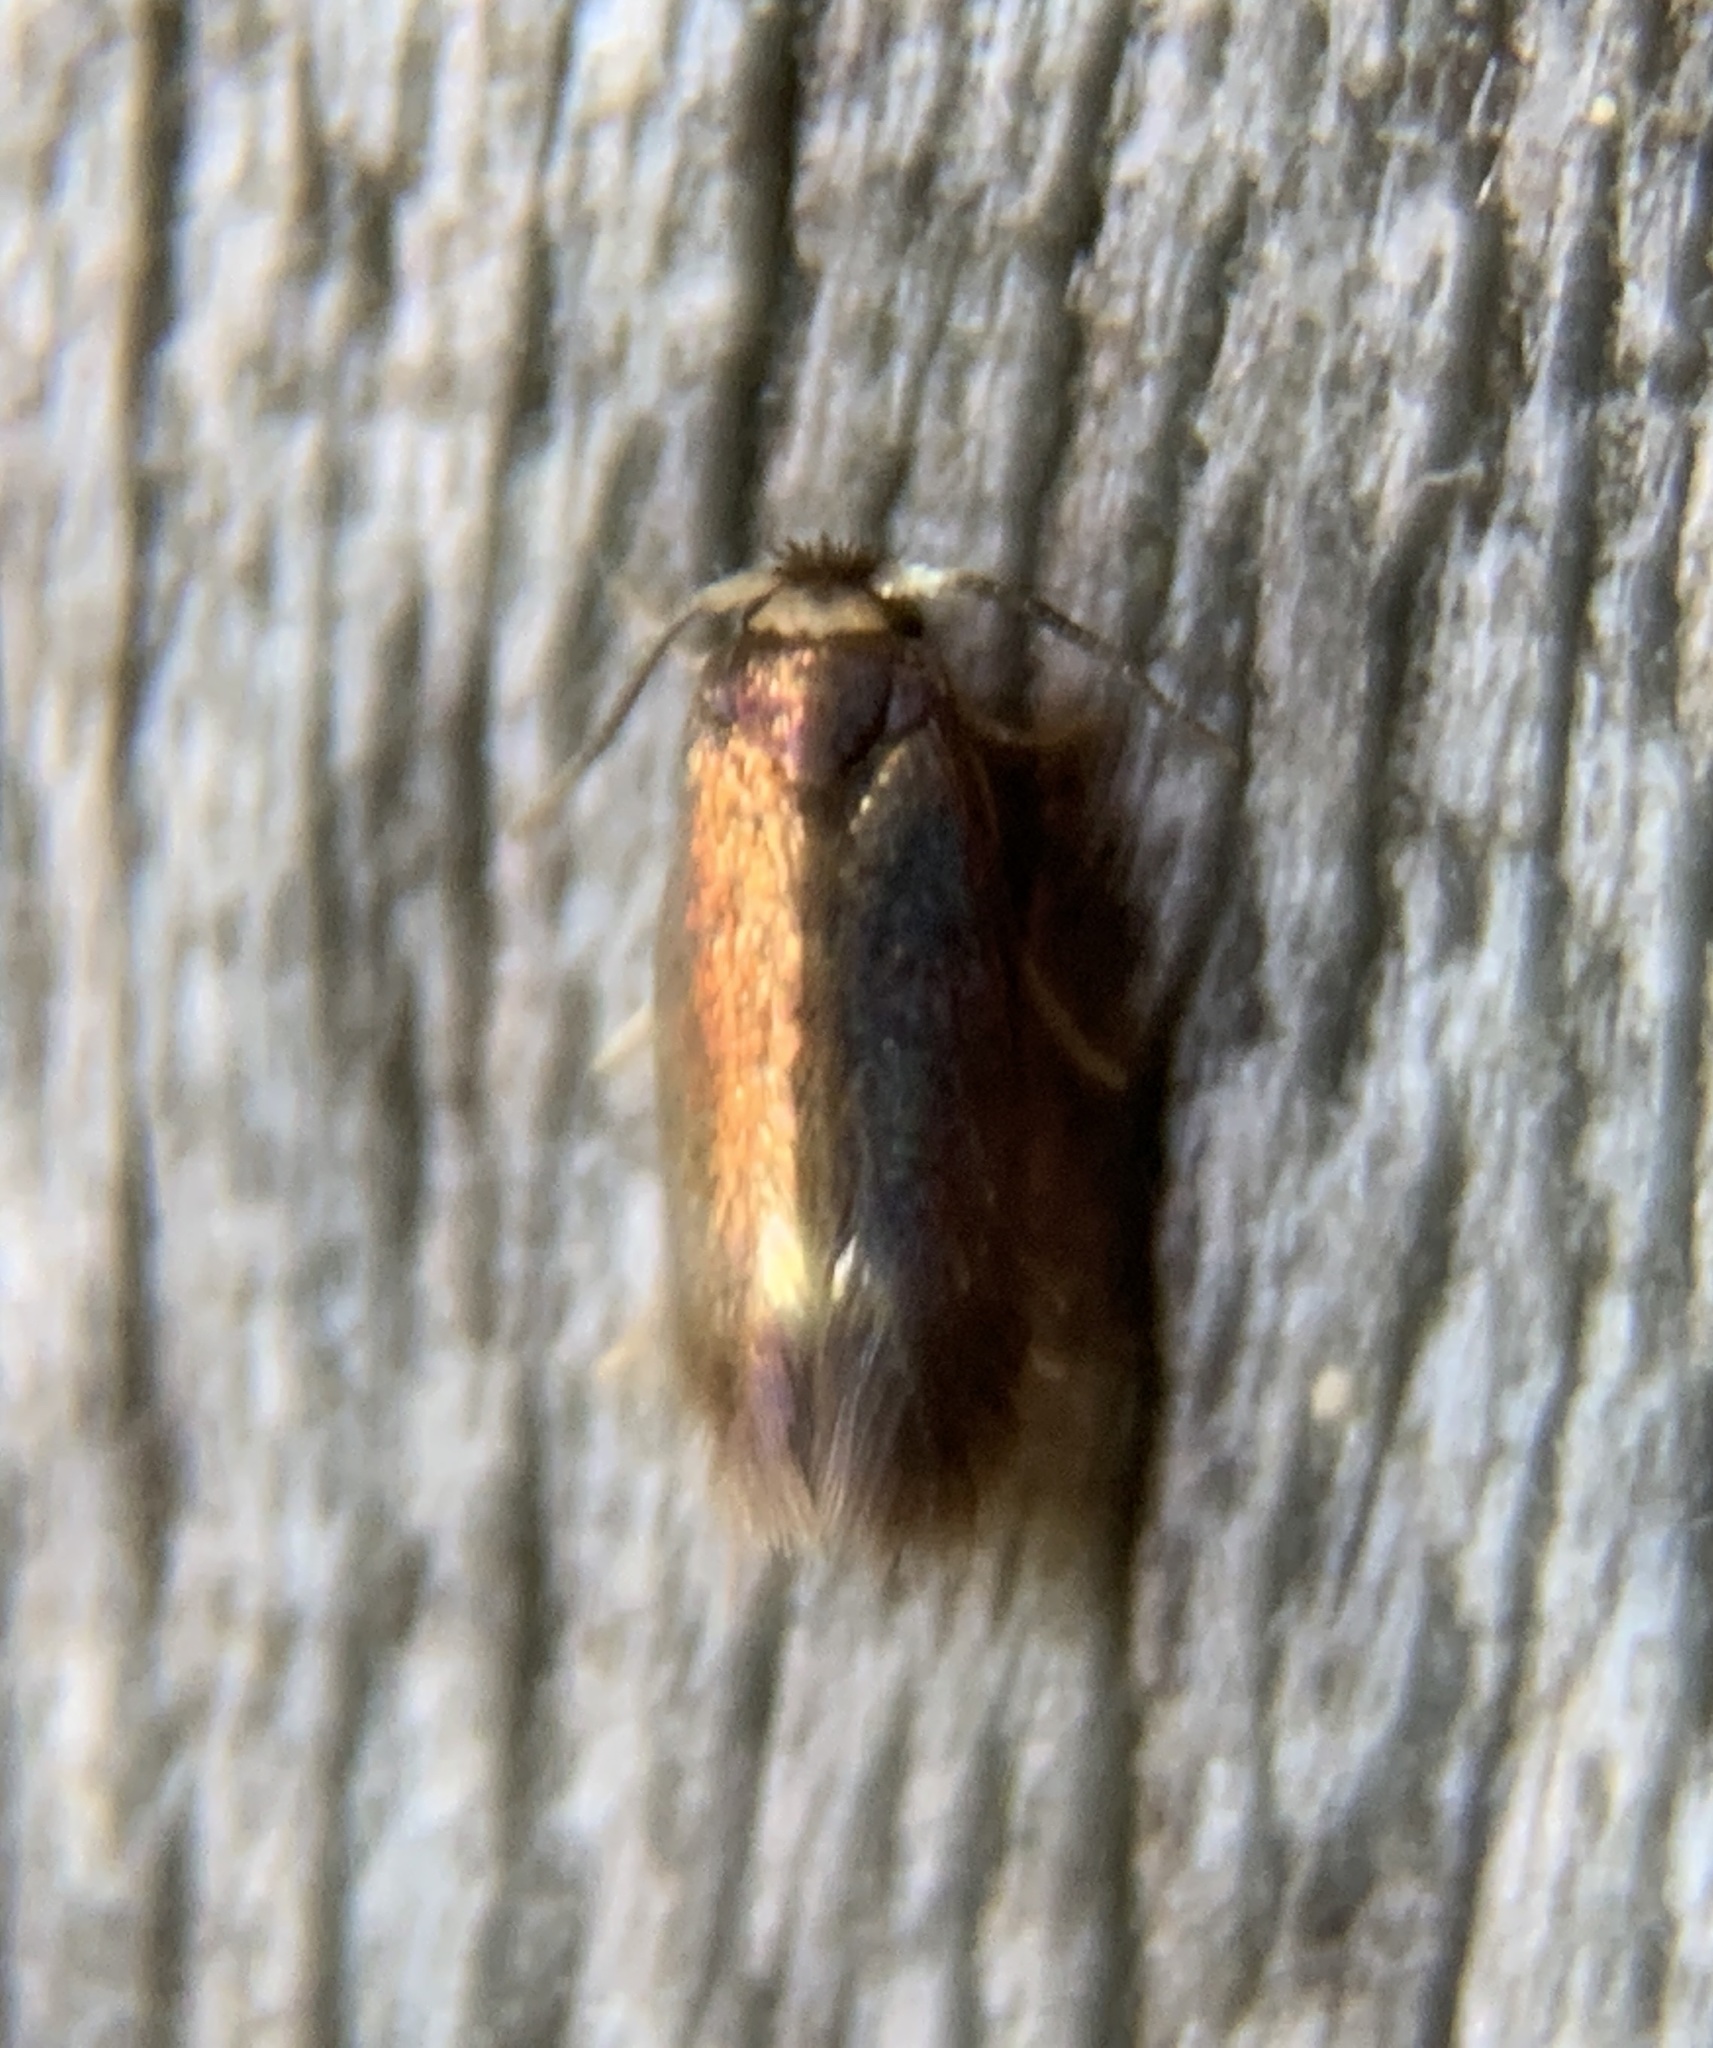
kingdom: Animalia
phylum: Arthropoda
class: Insecta
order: Lepidoptera
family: Nepticulidae
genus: Stigmella
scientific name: Stigmella multispicata
